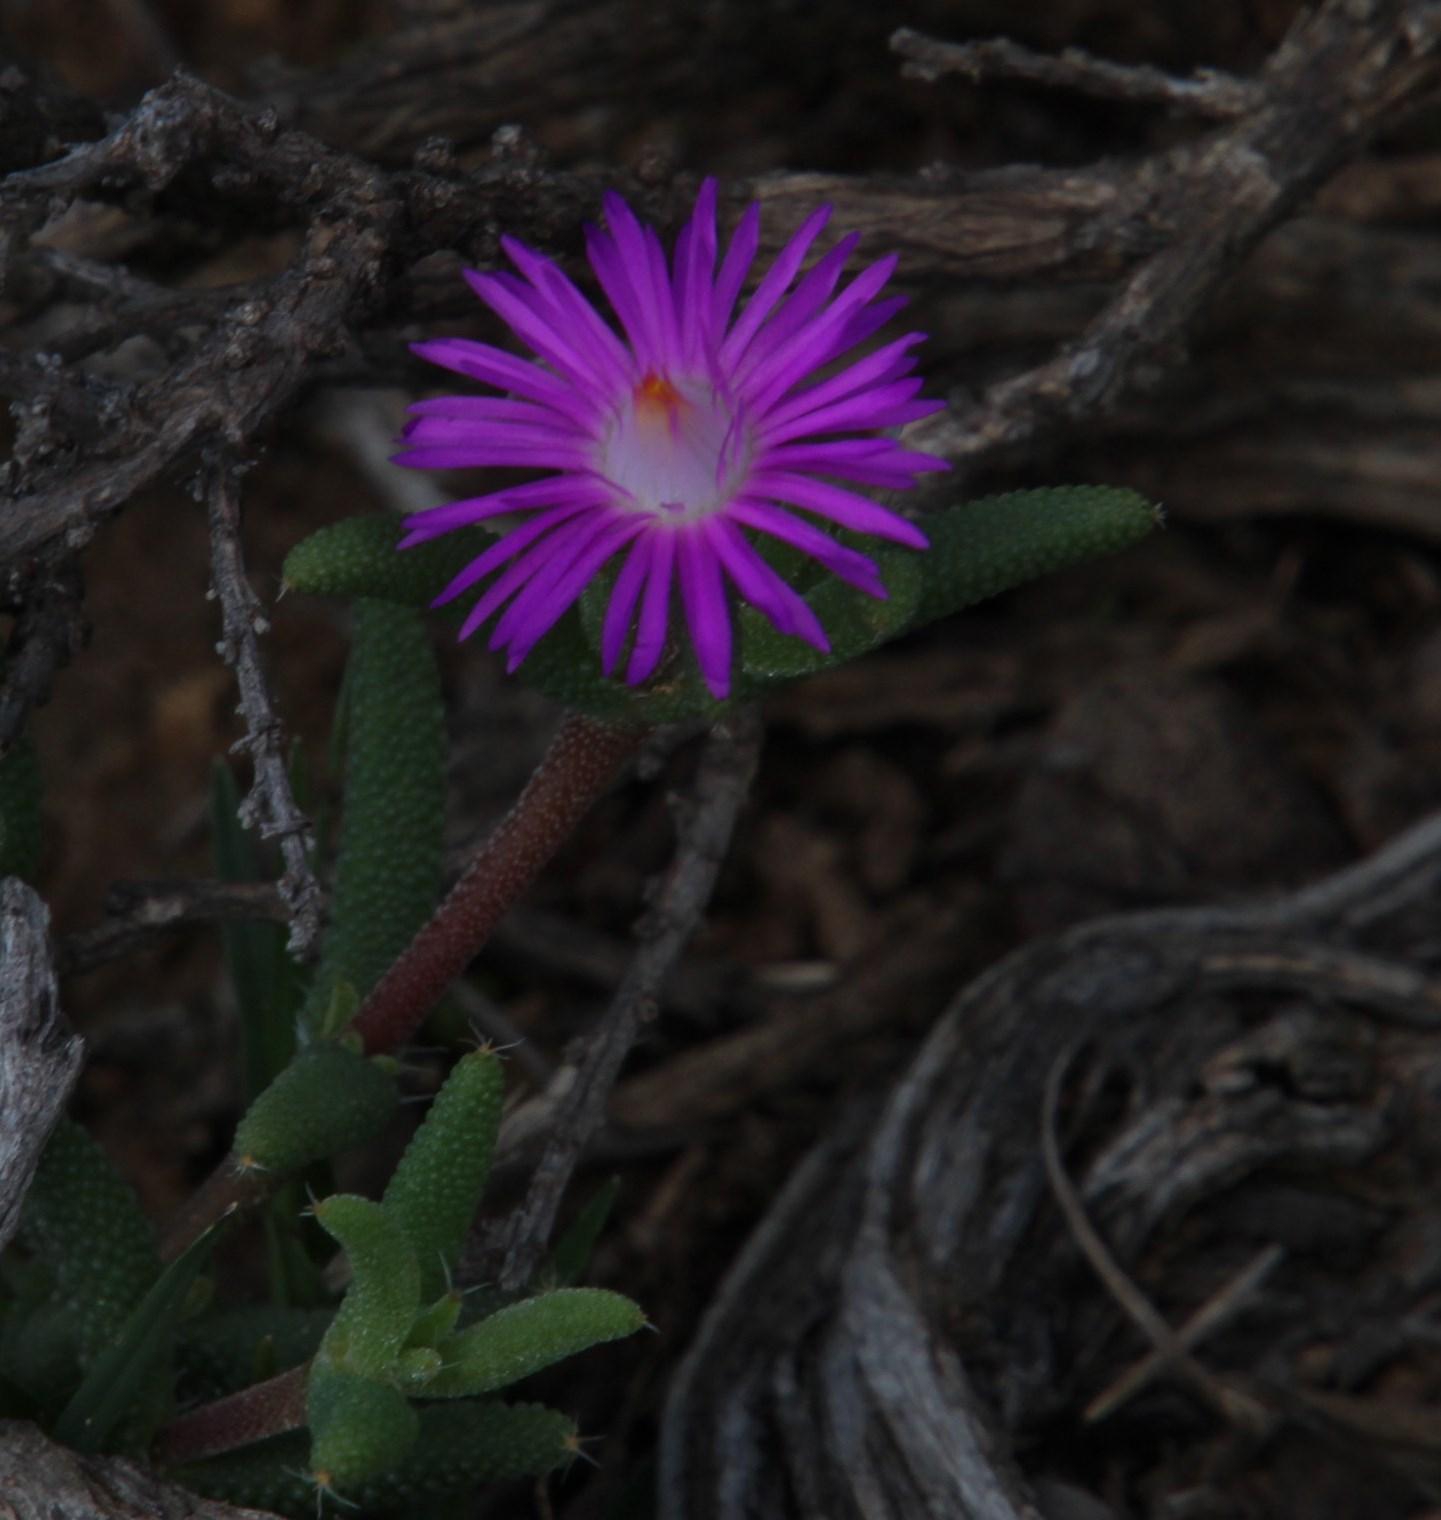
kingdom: Plantae
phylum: Tracheophyta
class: Magnoliopsida
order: Caryophyllales
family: Aizoaceae
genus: Trichodiadema
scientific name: Trichodiadema rogersiae
